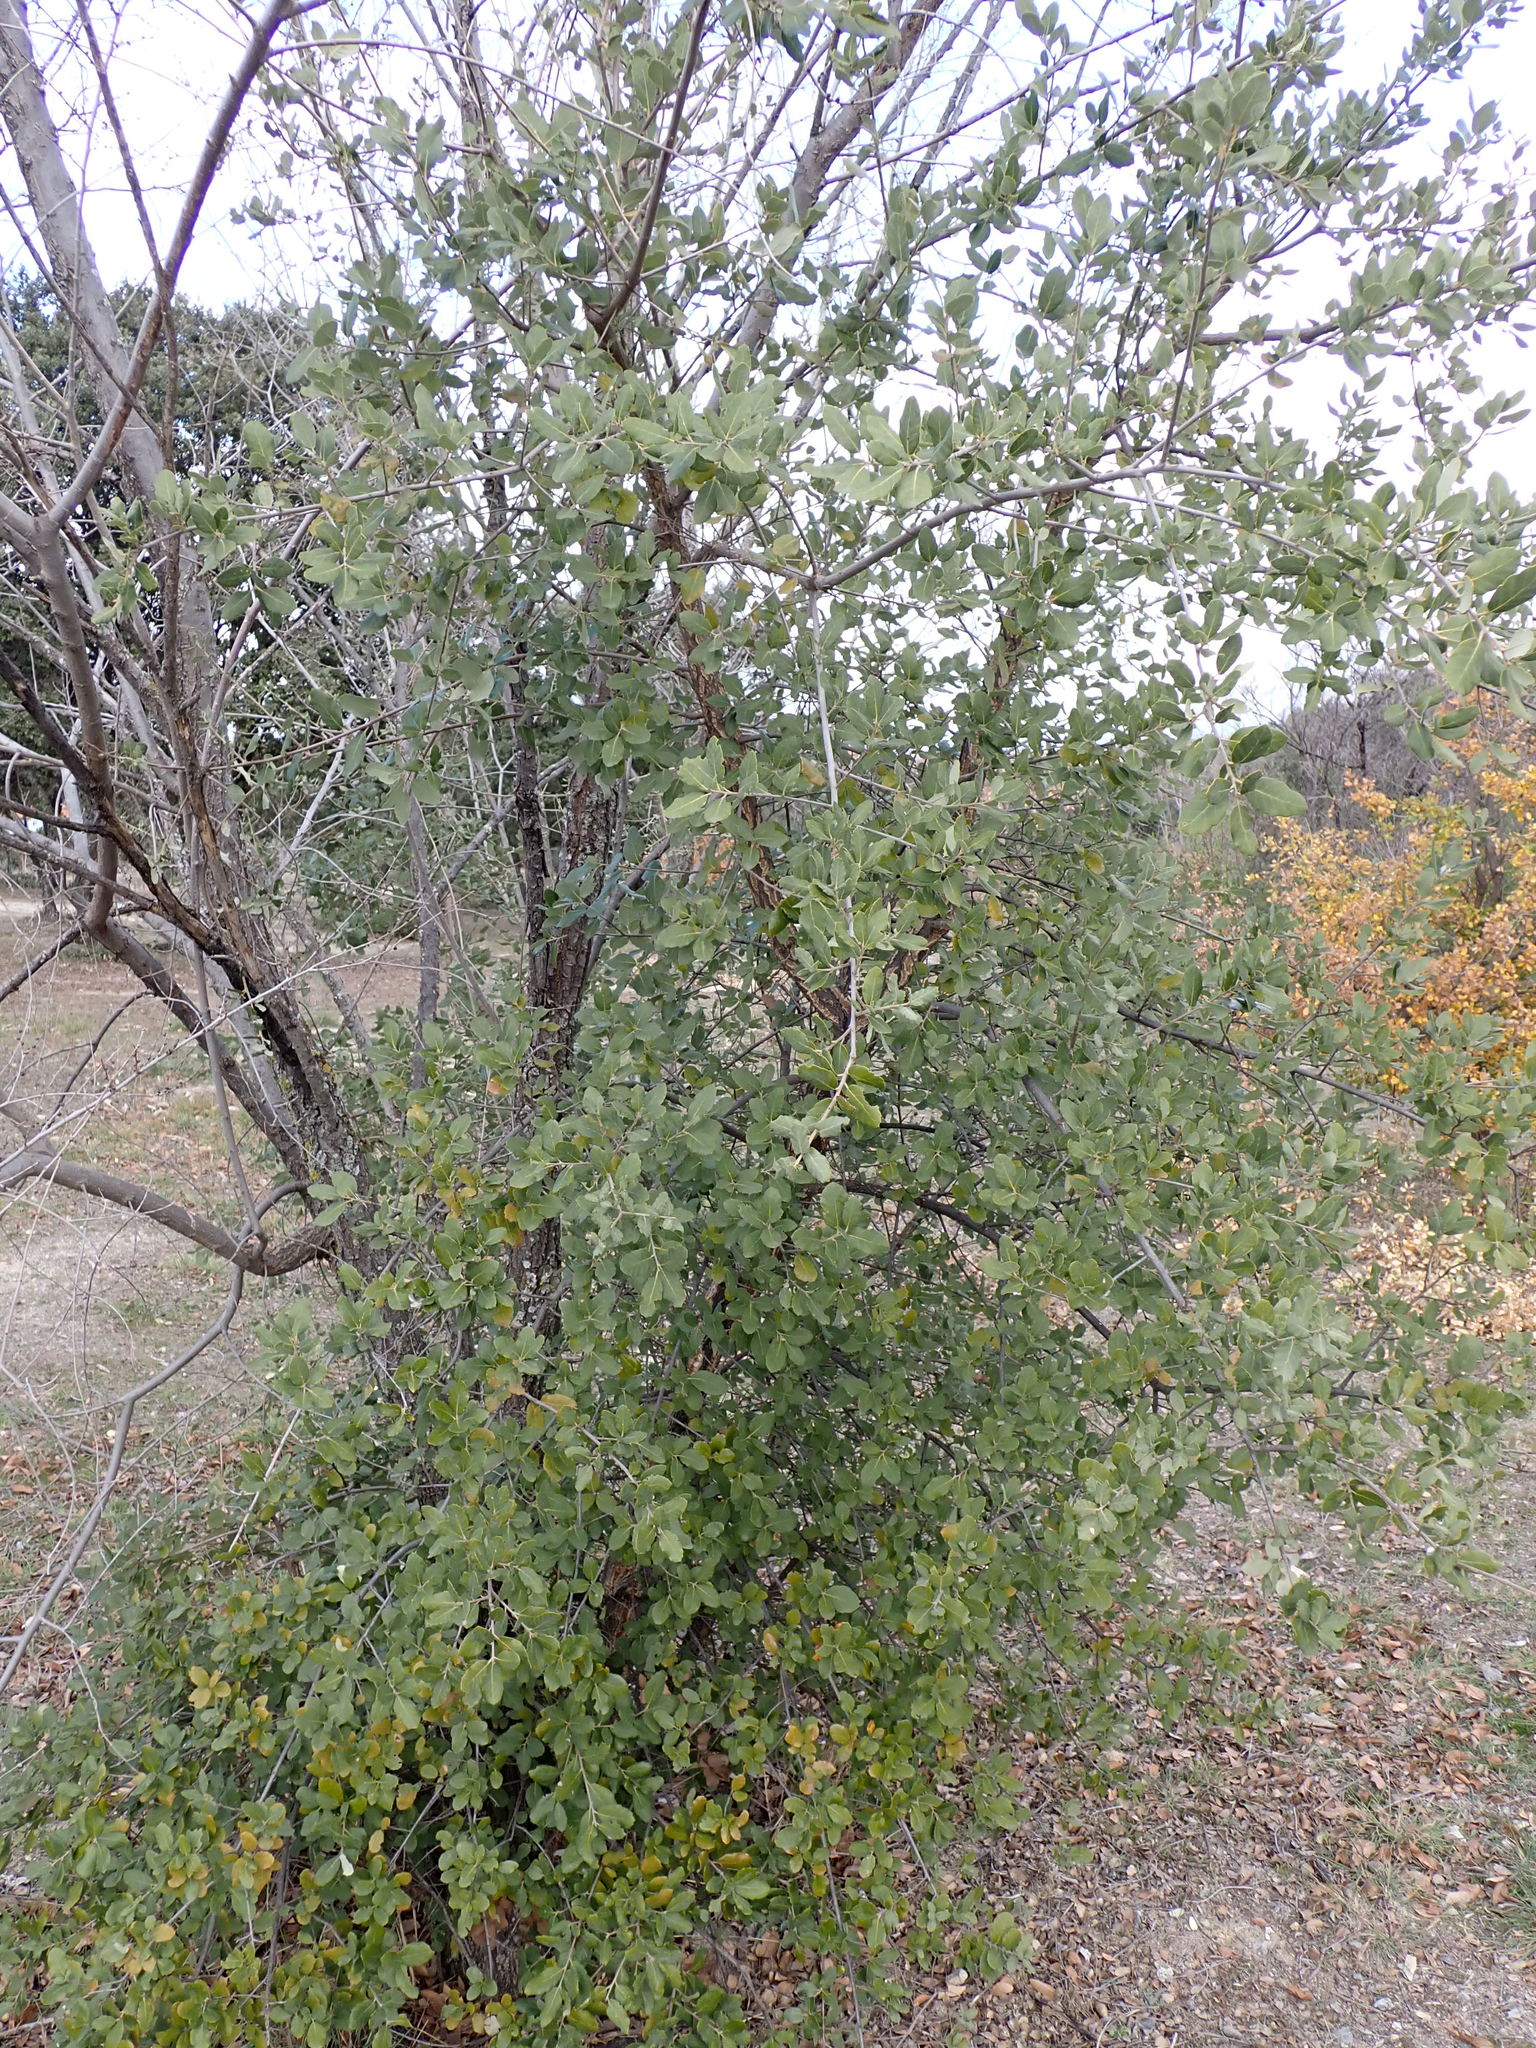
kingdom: Plantae
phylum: Tracheophyta
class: Magnoliopsida
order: Fagales
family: Fagaceae
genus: Quercus
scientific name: Quercus suber
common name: Cork oak
